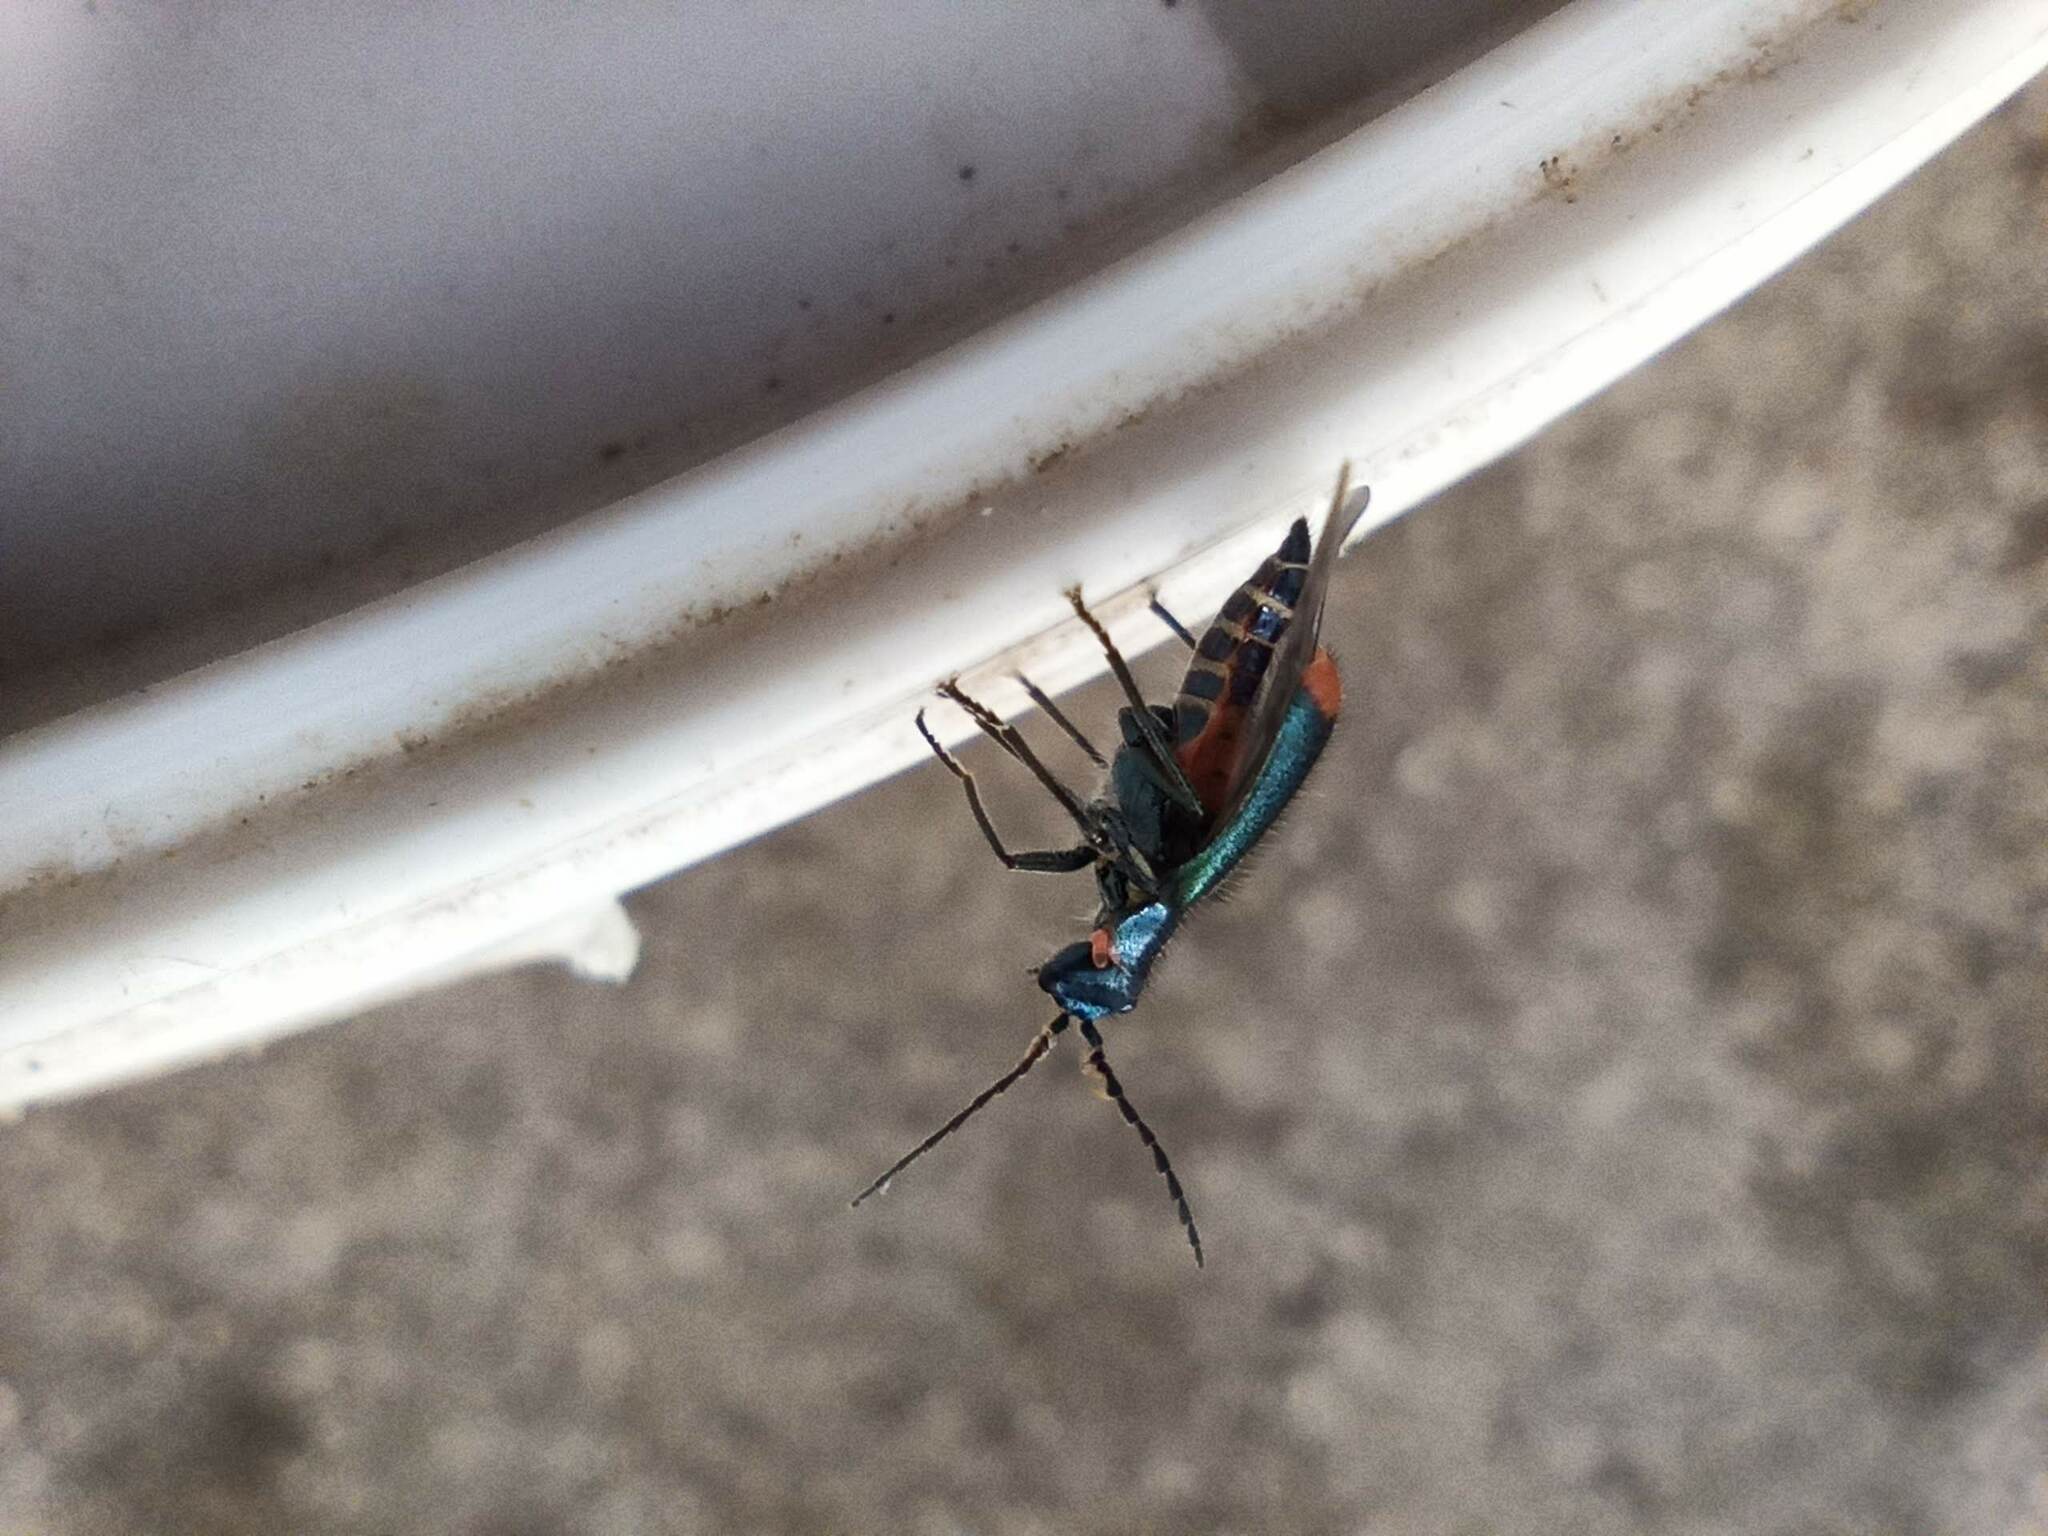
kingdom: Animalia
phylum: Arthropoda
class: Insecta
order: Coleoptera
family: Melyridae
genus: Malachius
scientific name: Malachius lusitanicus
